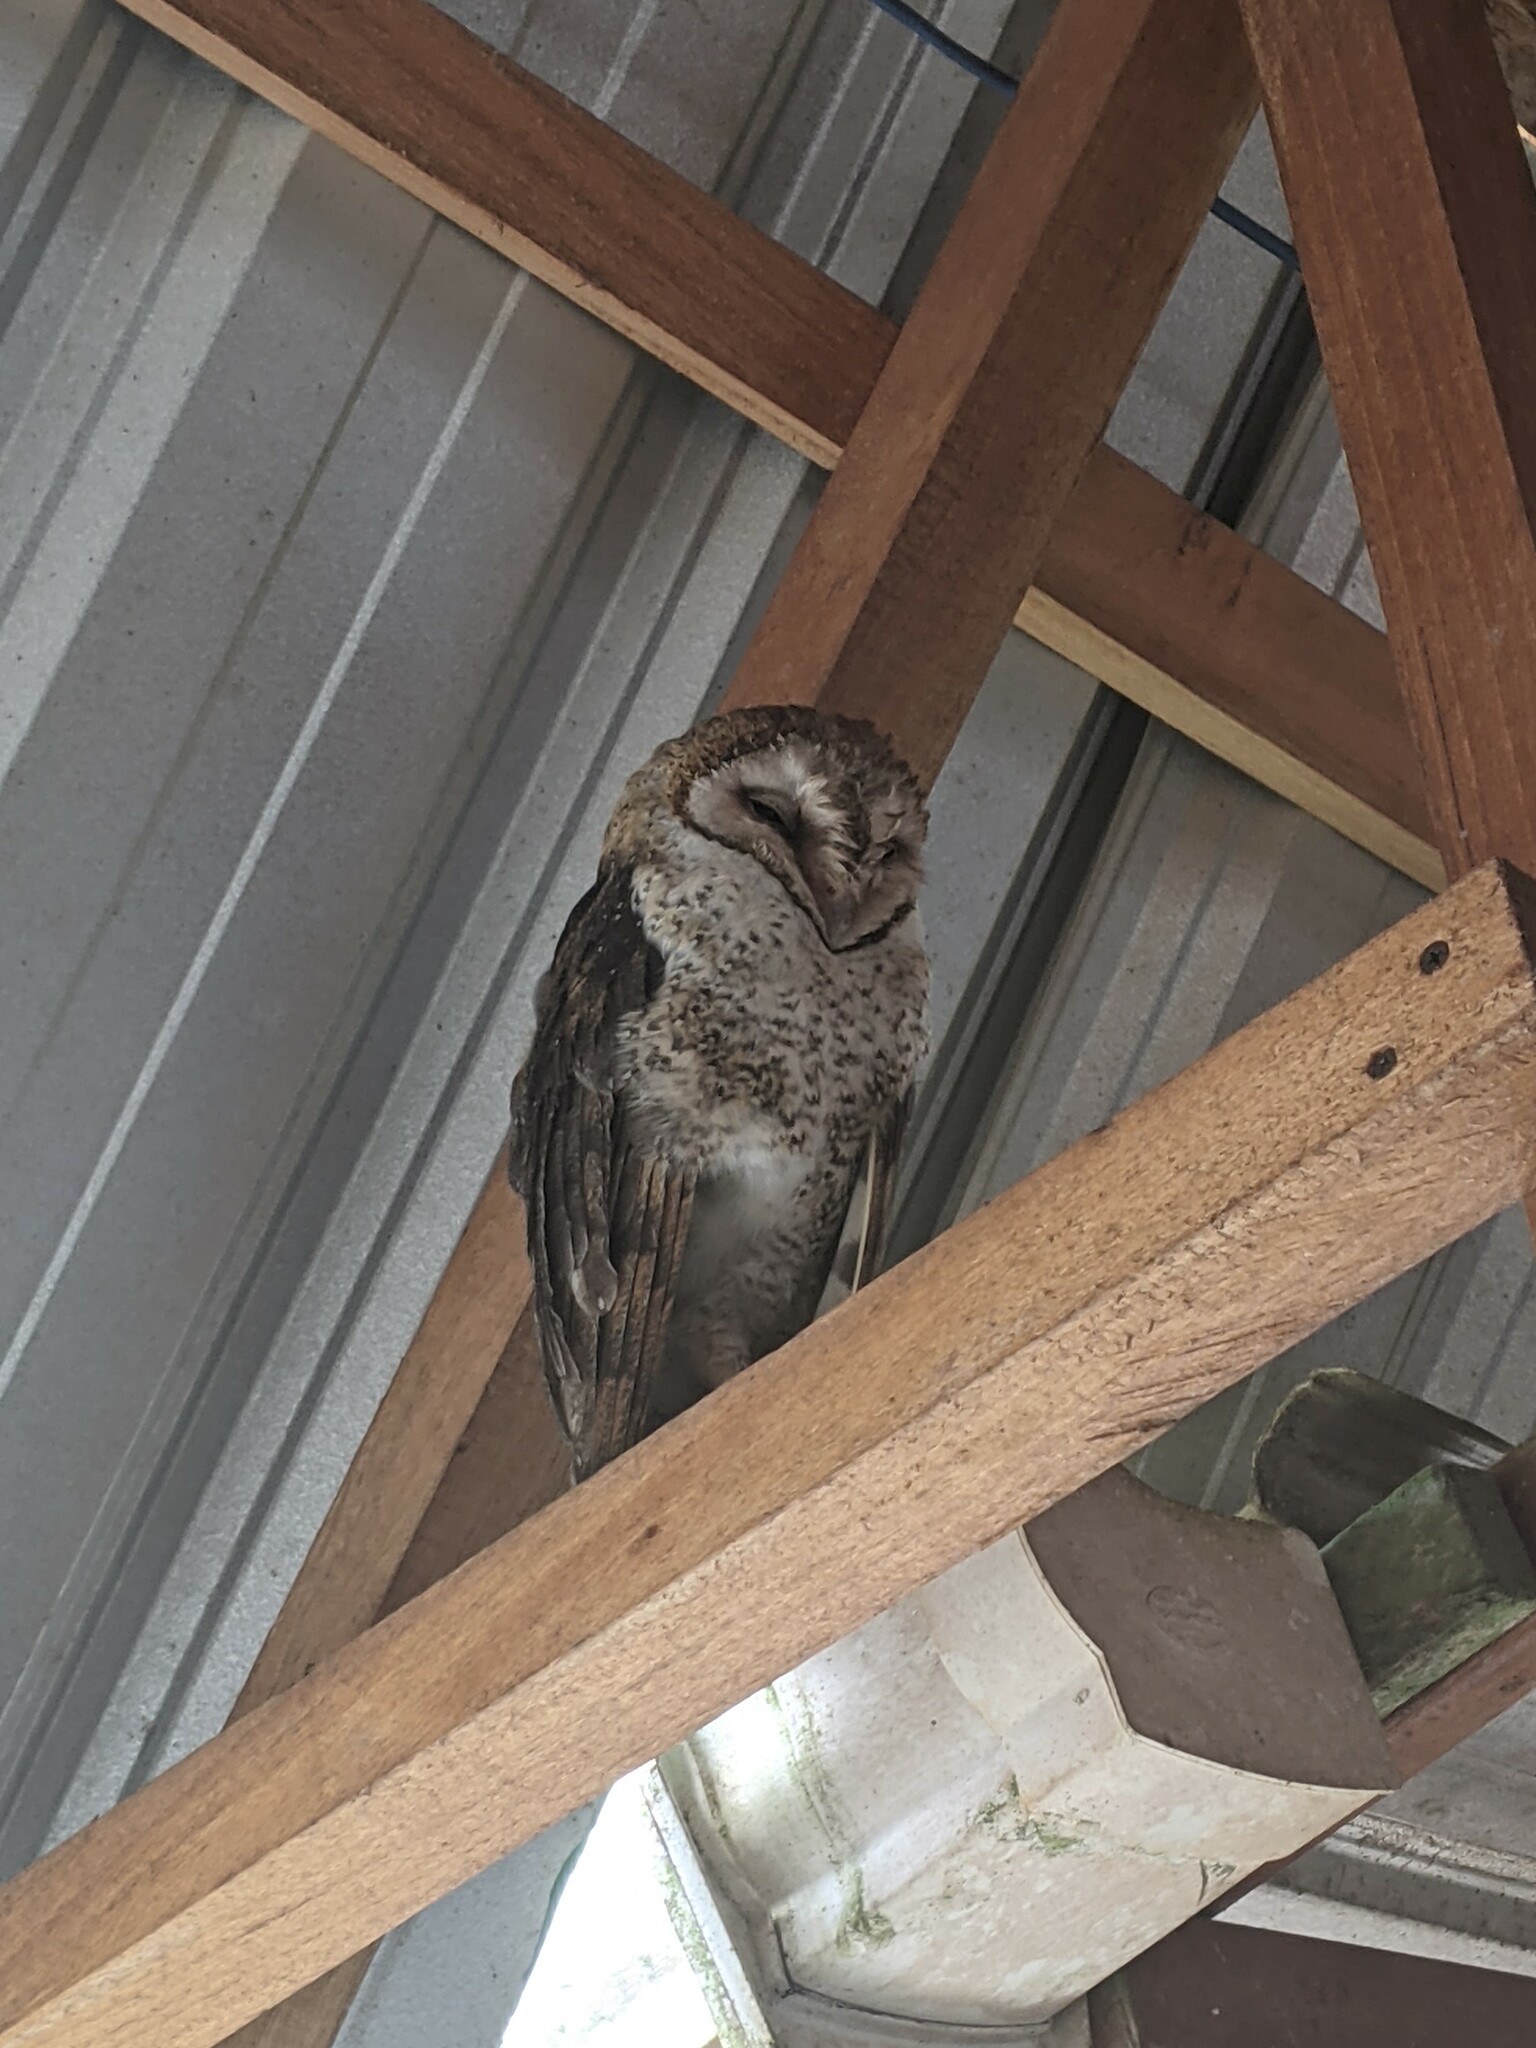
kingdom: Animalia
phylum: Chordata
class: Aves
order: Strigiformes
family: Tytonidae
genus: Tyto
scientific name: Tyto furcata
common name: American barn owl
